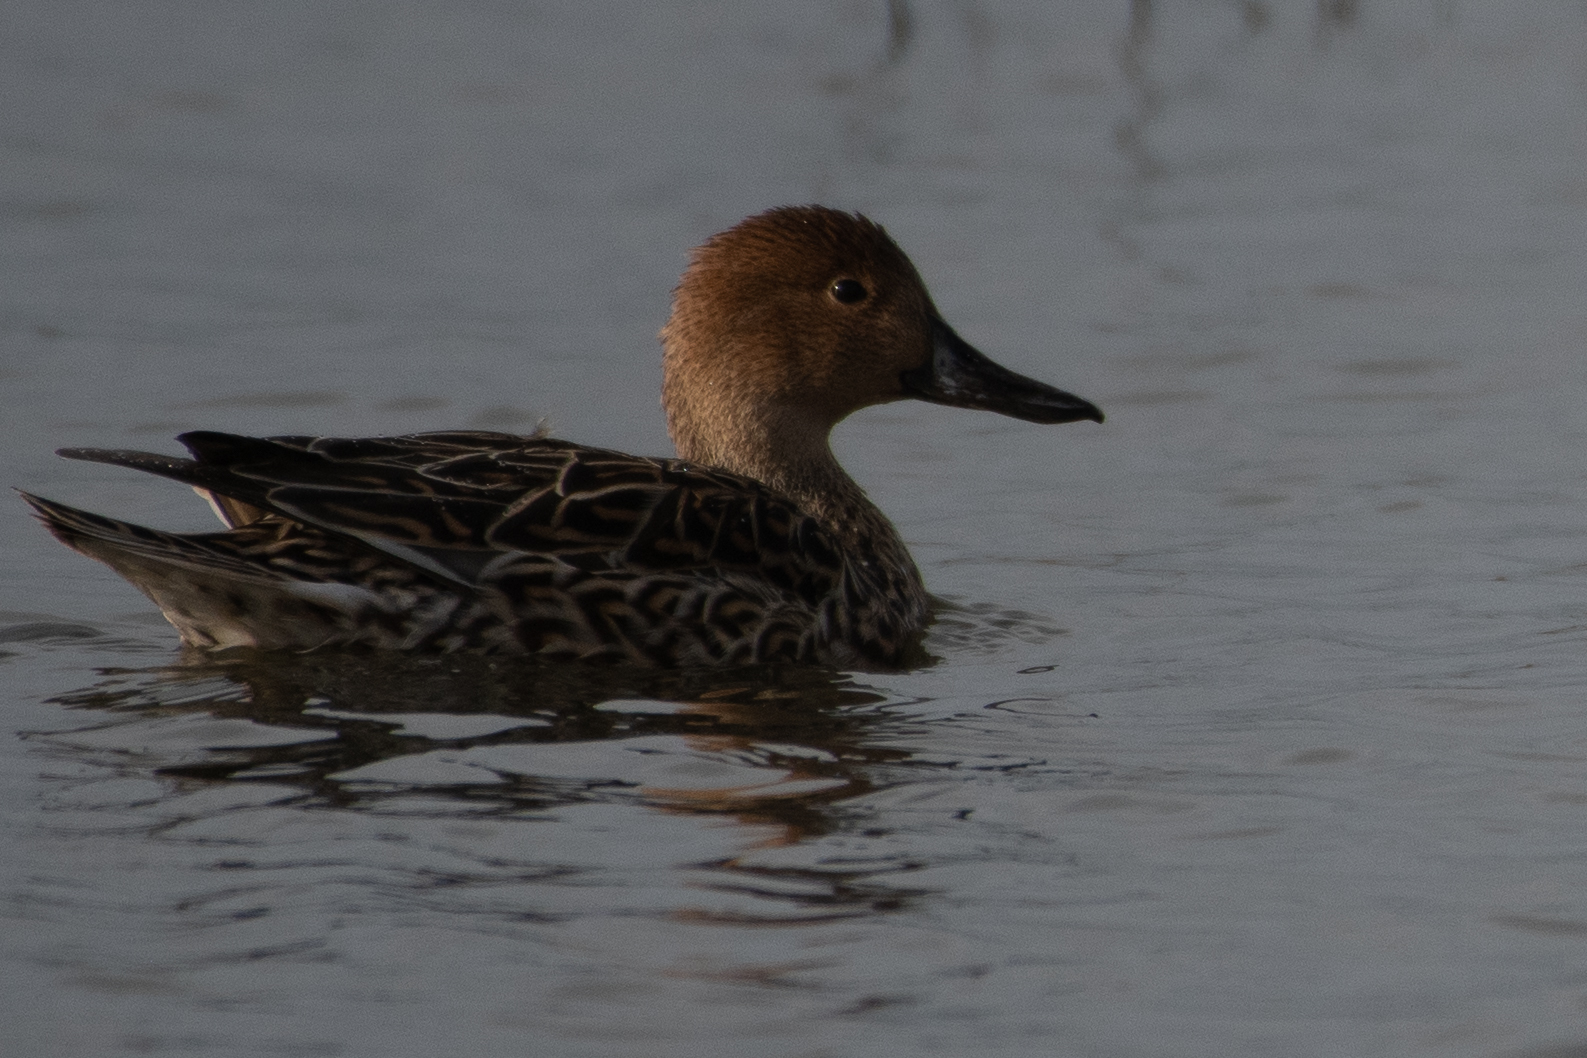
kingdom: Animalia
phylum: Chordata
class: Aves
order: Anseriformes
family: Anatidae
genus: Anas
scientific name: Anas acuta
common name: Northern pintail
